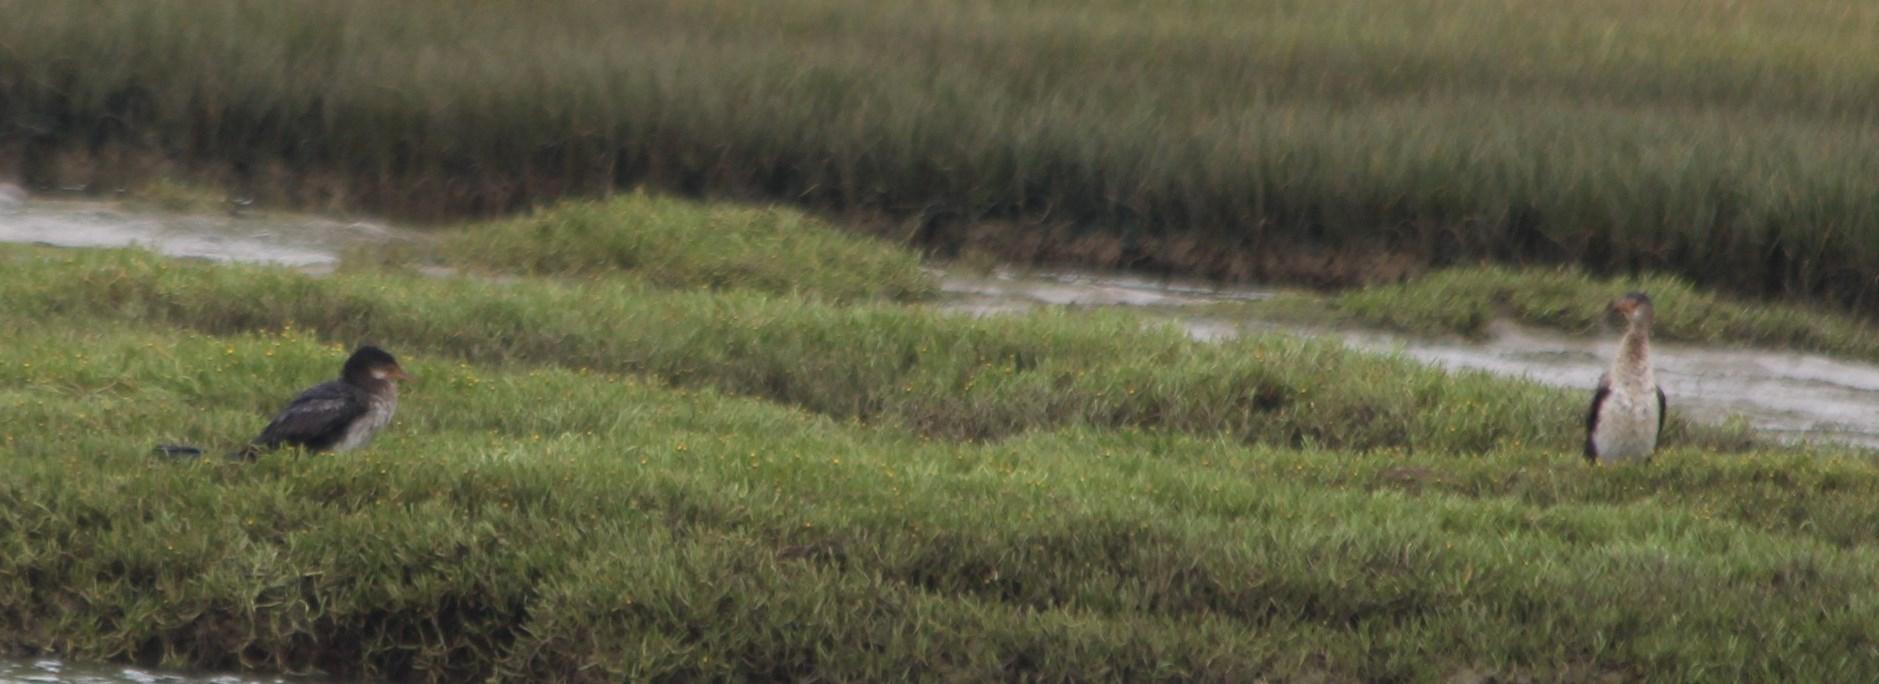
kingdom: Animalia
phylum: Chordata
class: Aves
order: Suliformes
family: Phalacrocoracidae
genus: Phalacrocorax
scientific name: Phalacrocorax carbo
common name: Great cormorant
